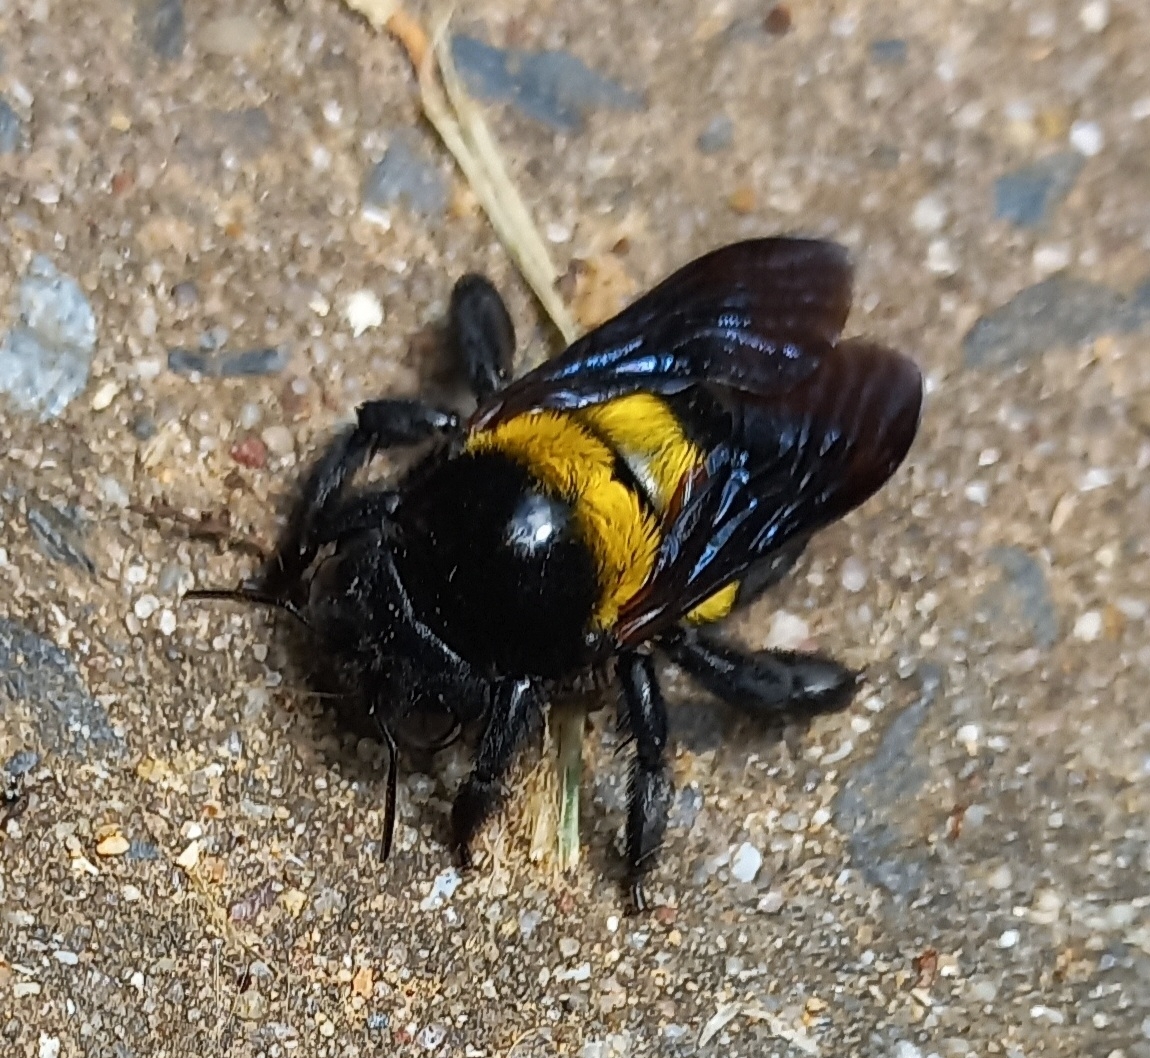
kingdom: Animalia
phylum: Arthropoda
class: Insecta
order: Hymenoptera
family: Apidae
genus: Xylocopa
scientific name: Xylocopa caffra
